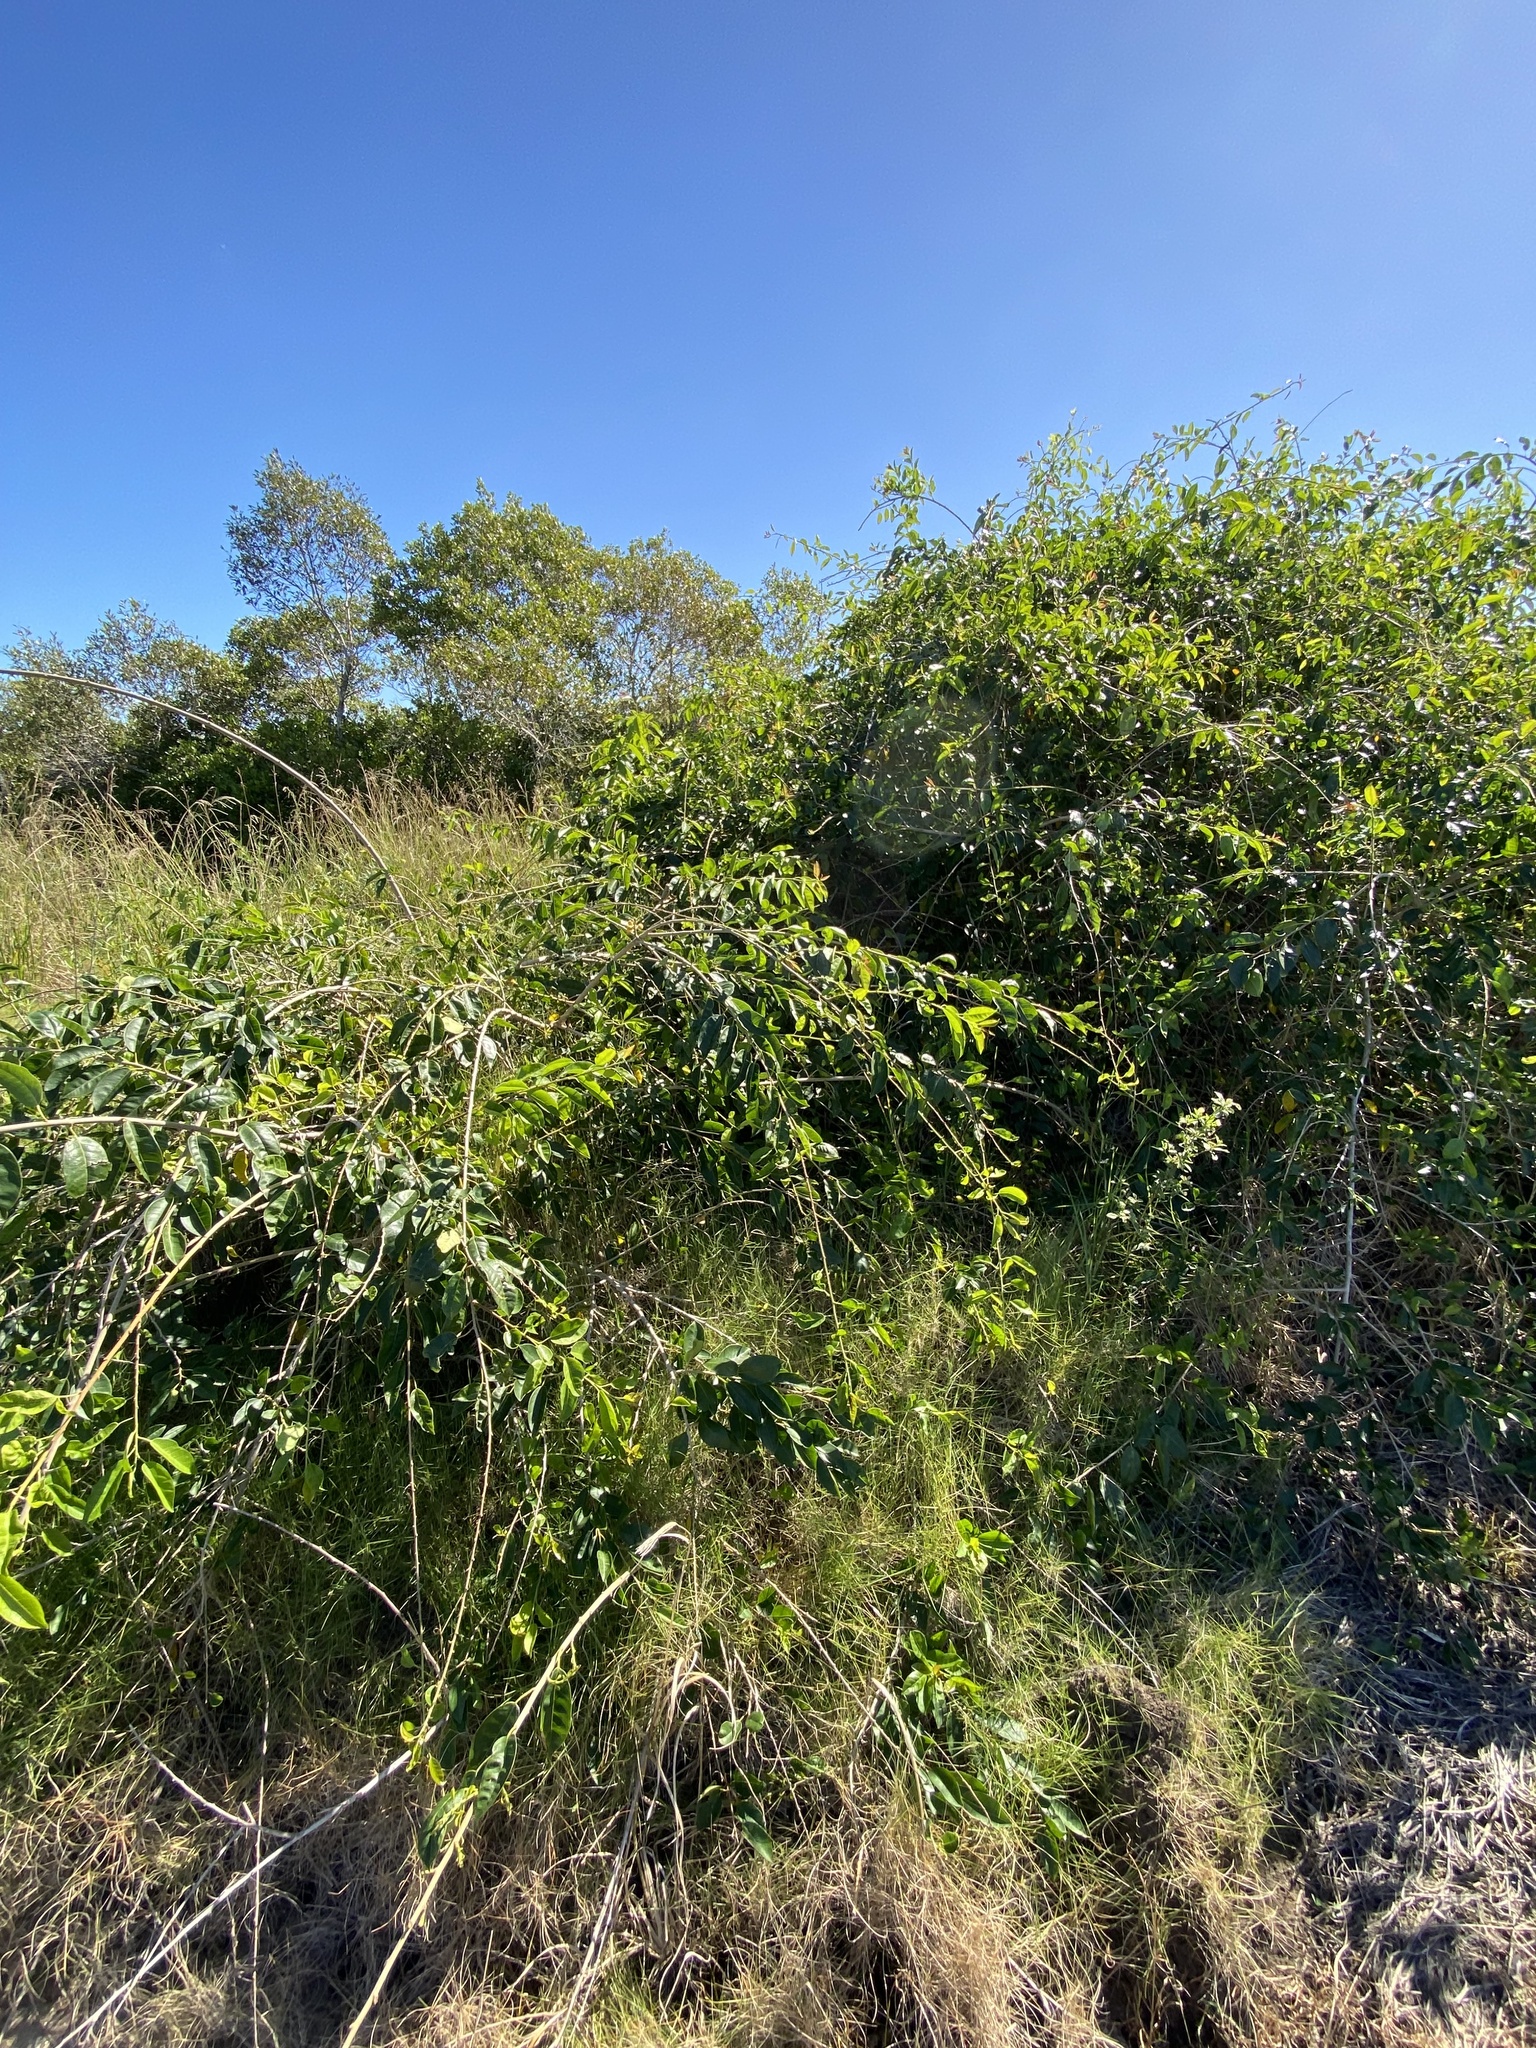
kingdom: Plantae
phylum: Tracheophyta
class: Magnoliopsida
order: Rosales
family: Moraceae
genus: Maclura
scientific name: Maclura cochinchinensis
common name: Cockspurthorn
